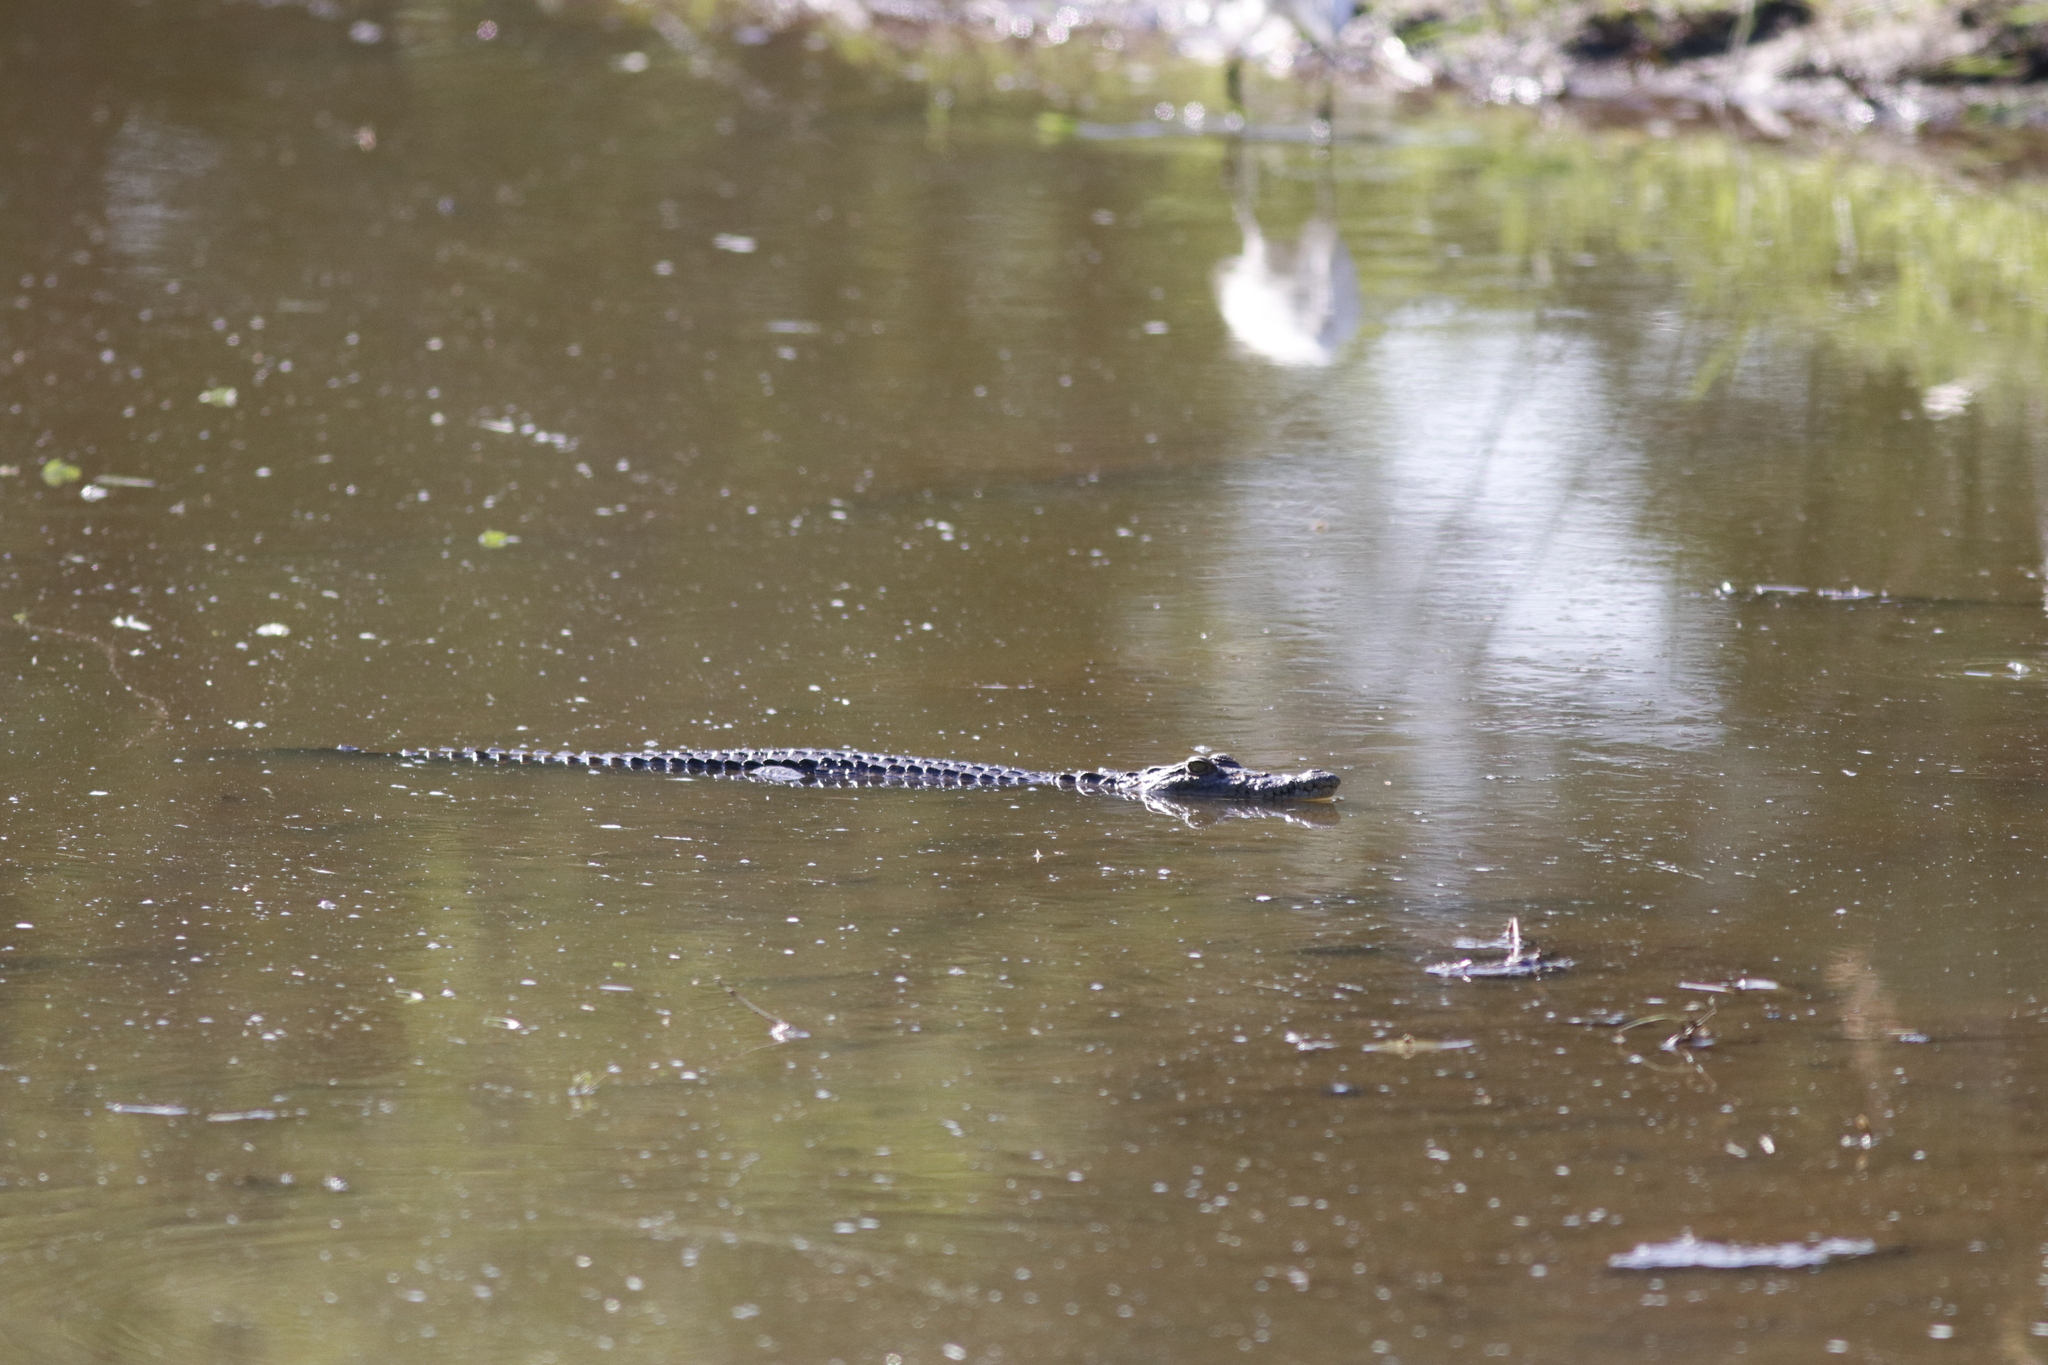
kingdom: Animalia
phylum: Chordata
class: Crocodylia
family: Crocodylidae
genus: Crocodylus
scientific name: Crocodylus niloticus
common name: Nile crocodile
